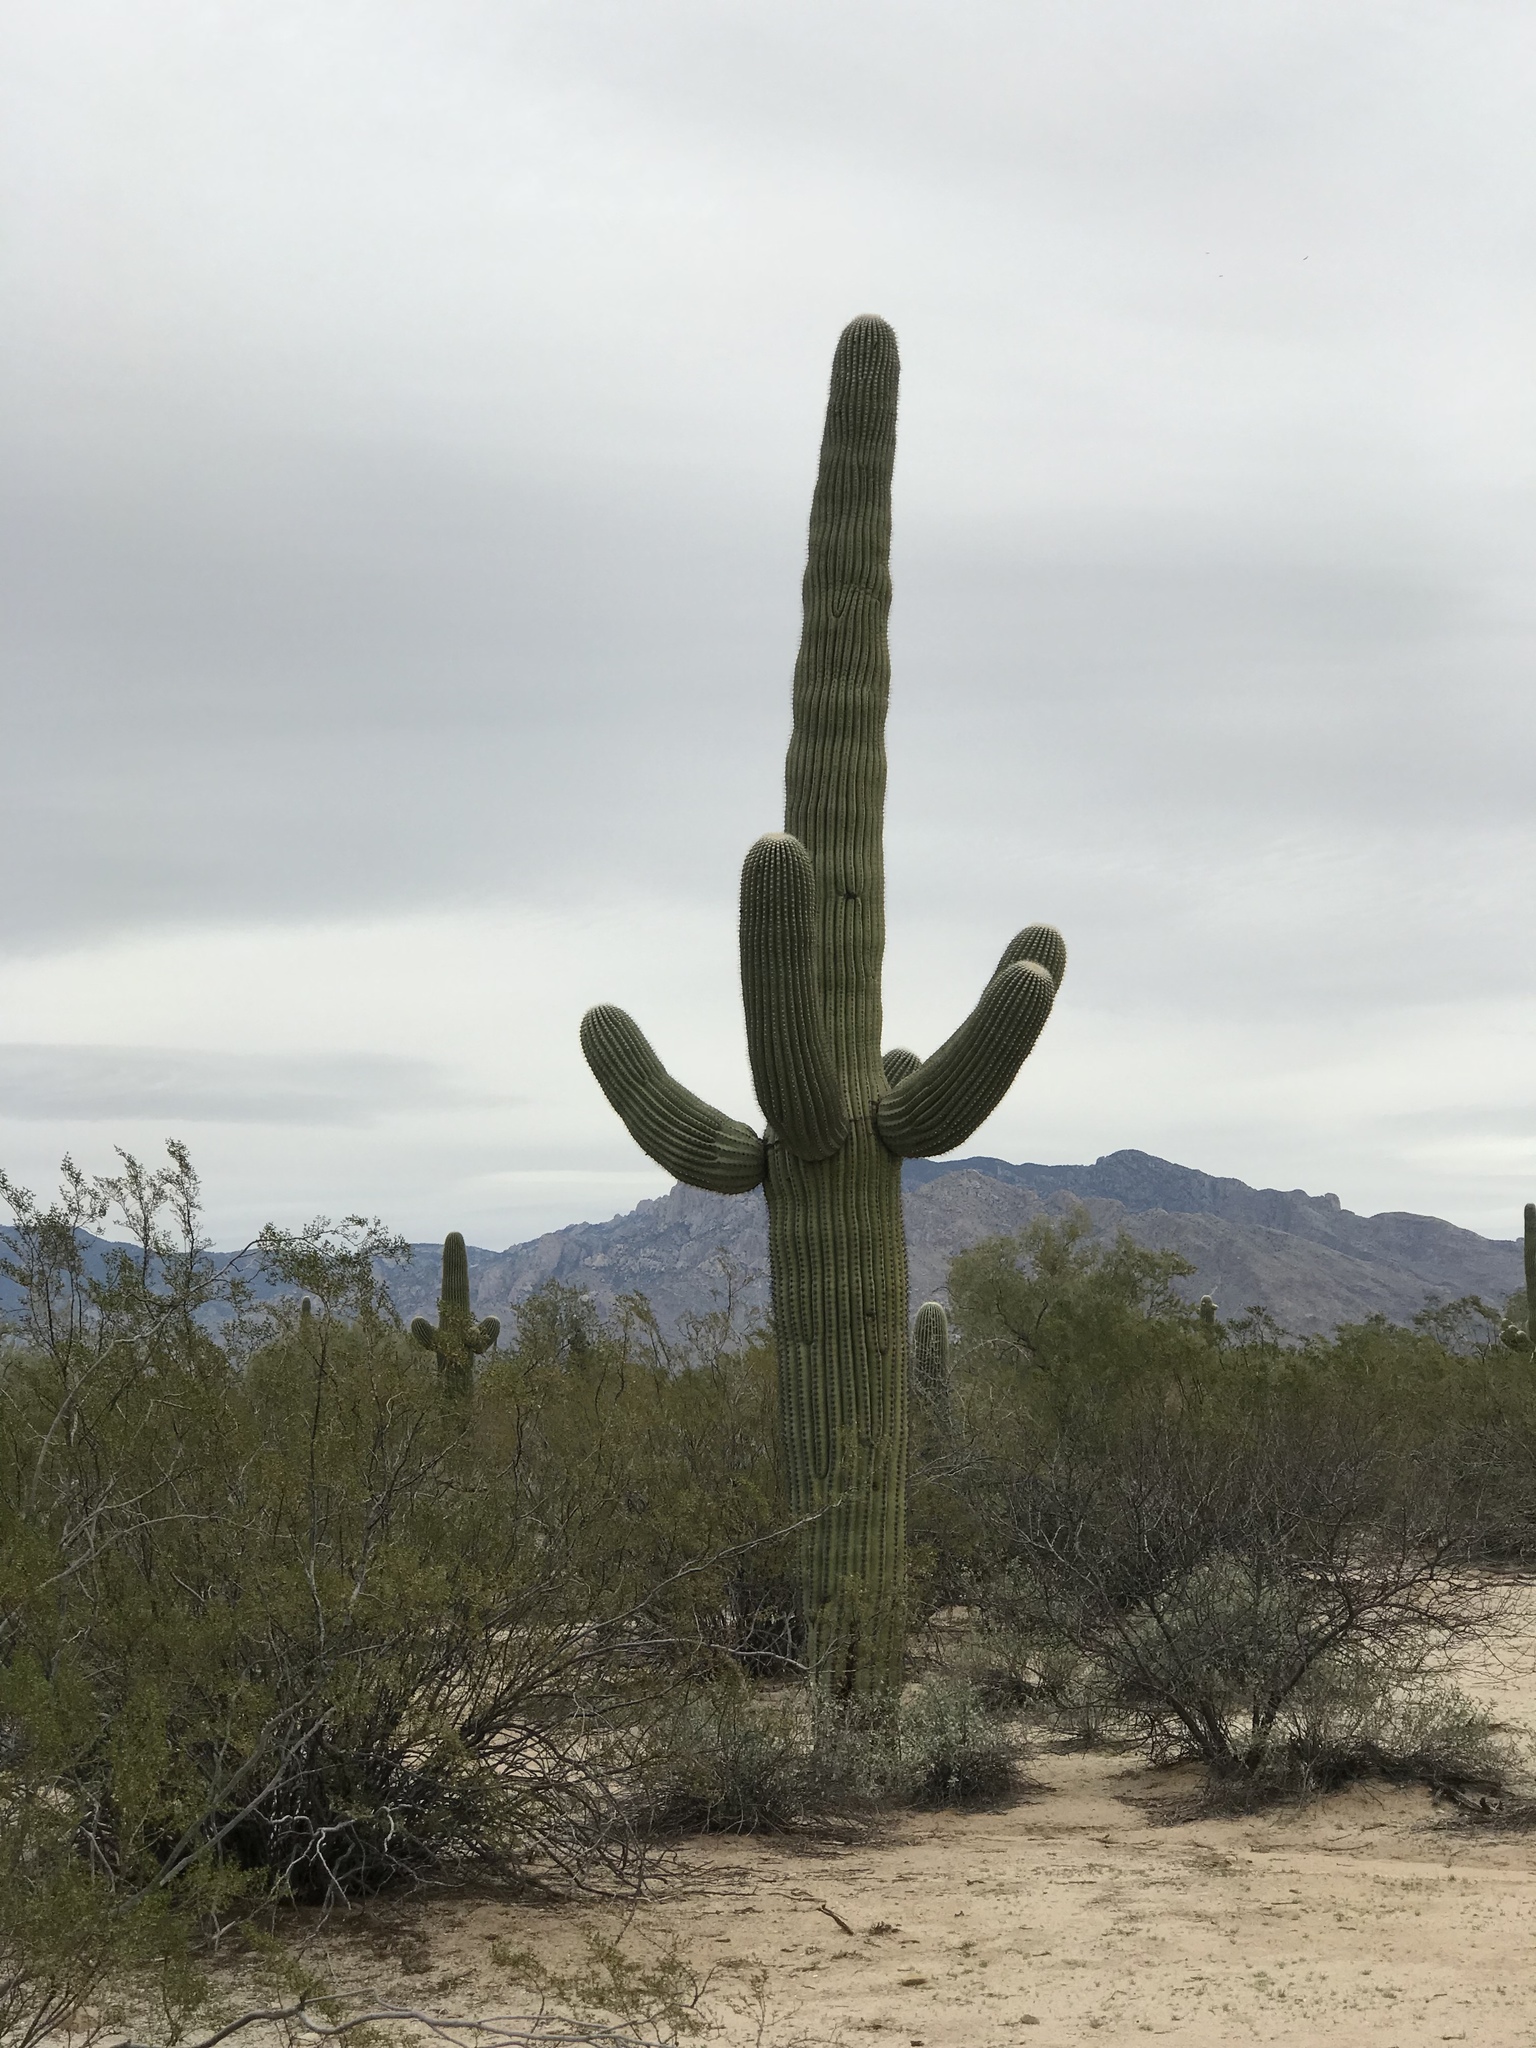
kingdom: Plantae
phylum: Tracheophyta
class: Magnoliopsida
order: Caryophyllales
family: Cactaceae
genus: Carnegiea
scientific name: Carnegiea gigantea
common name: Saguaro
